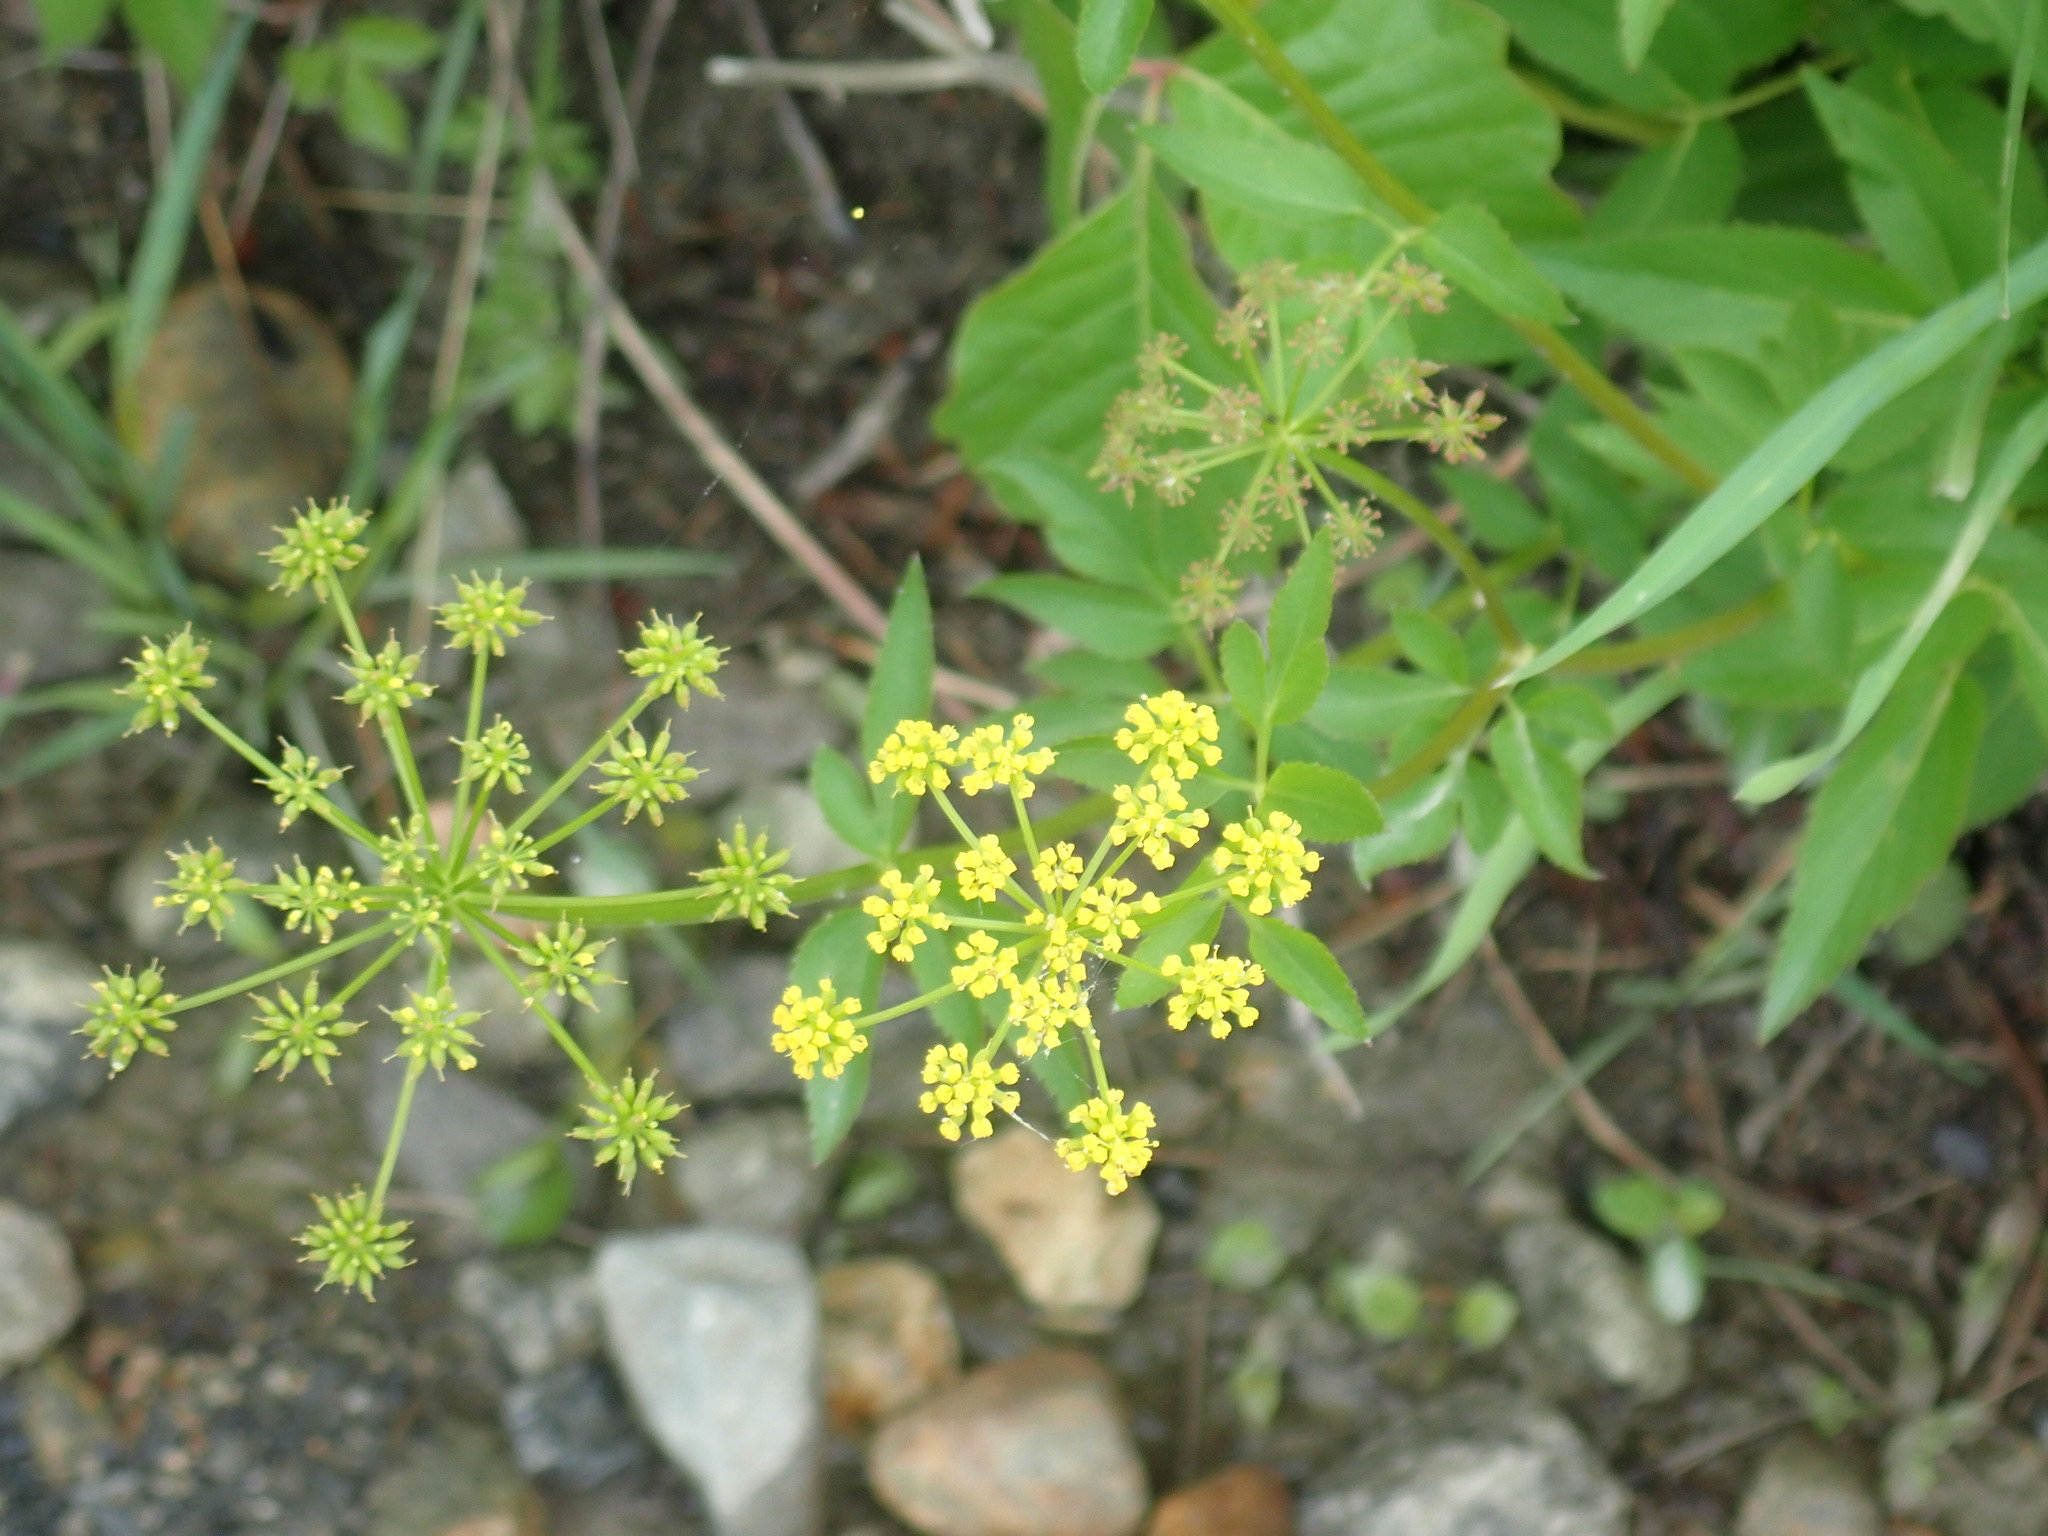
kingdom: Plantae
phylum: Tracheophyta
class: Magnoliopsida
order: Apiales
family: Apiaceae
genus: Zizia
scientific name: Zizia aurea
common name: Golden alexanders
